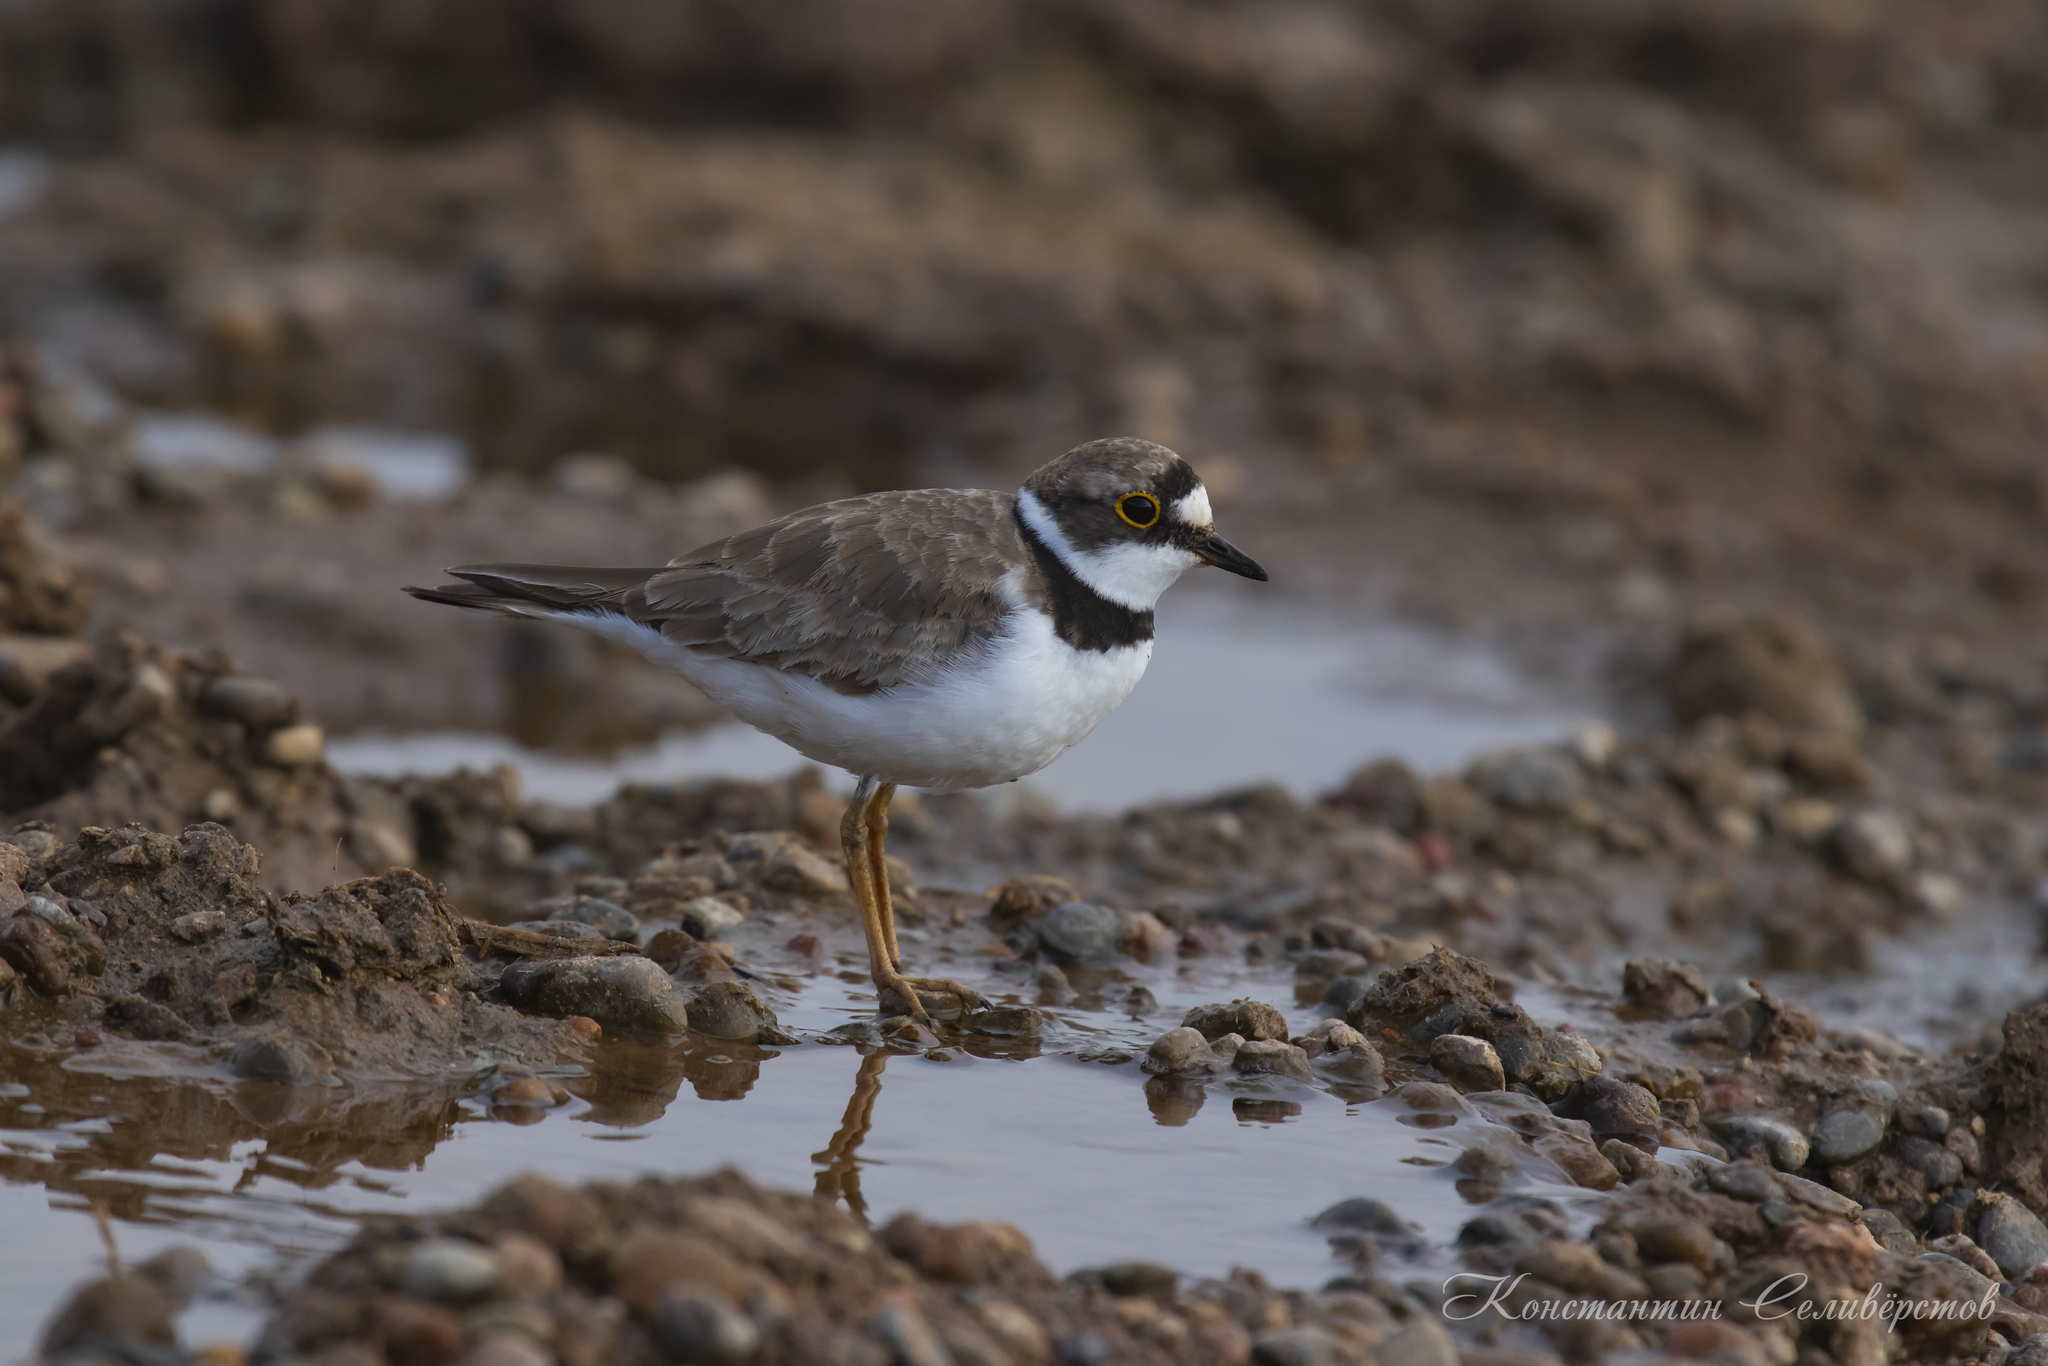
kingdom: Animalia
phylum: Chordata
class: Aves
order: Charadriiformes
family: Charadriidae
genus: Charadrius
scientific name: Charadrius dubius
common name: Little ringed plover
